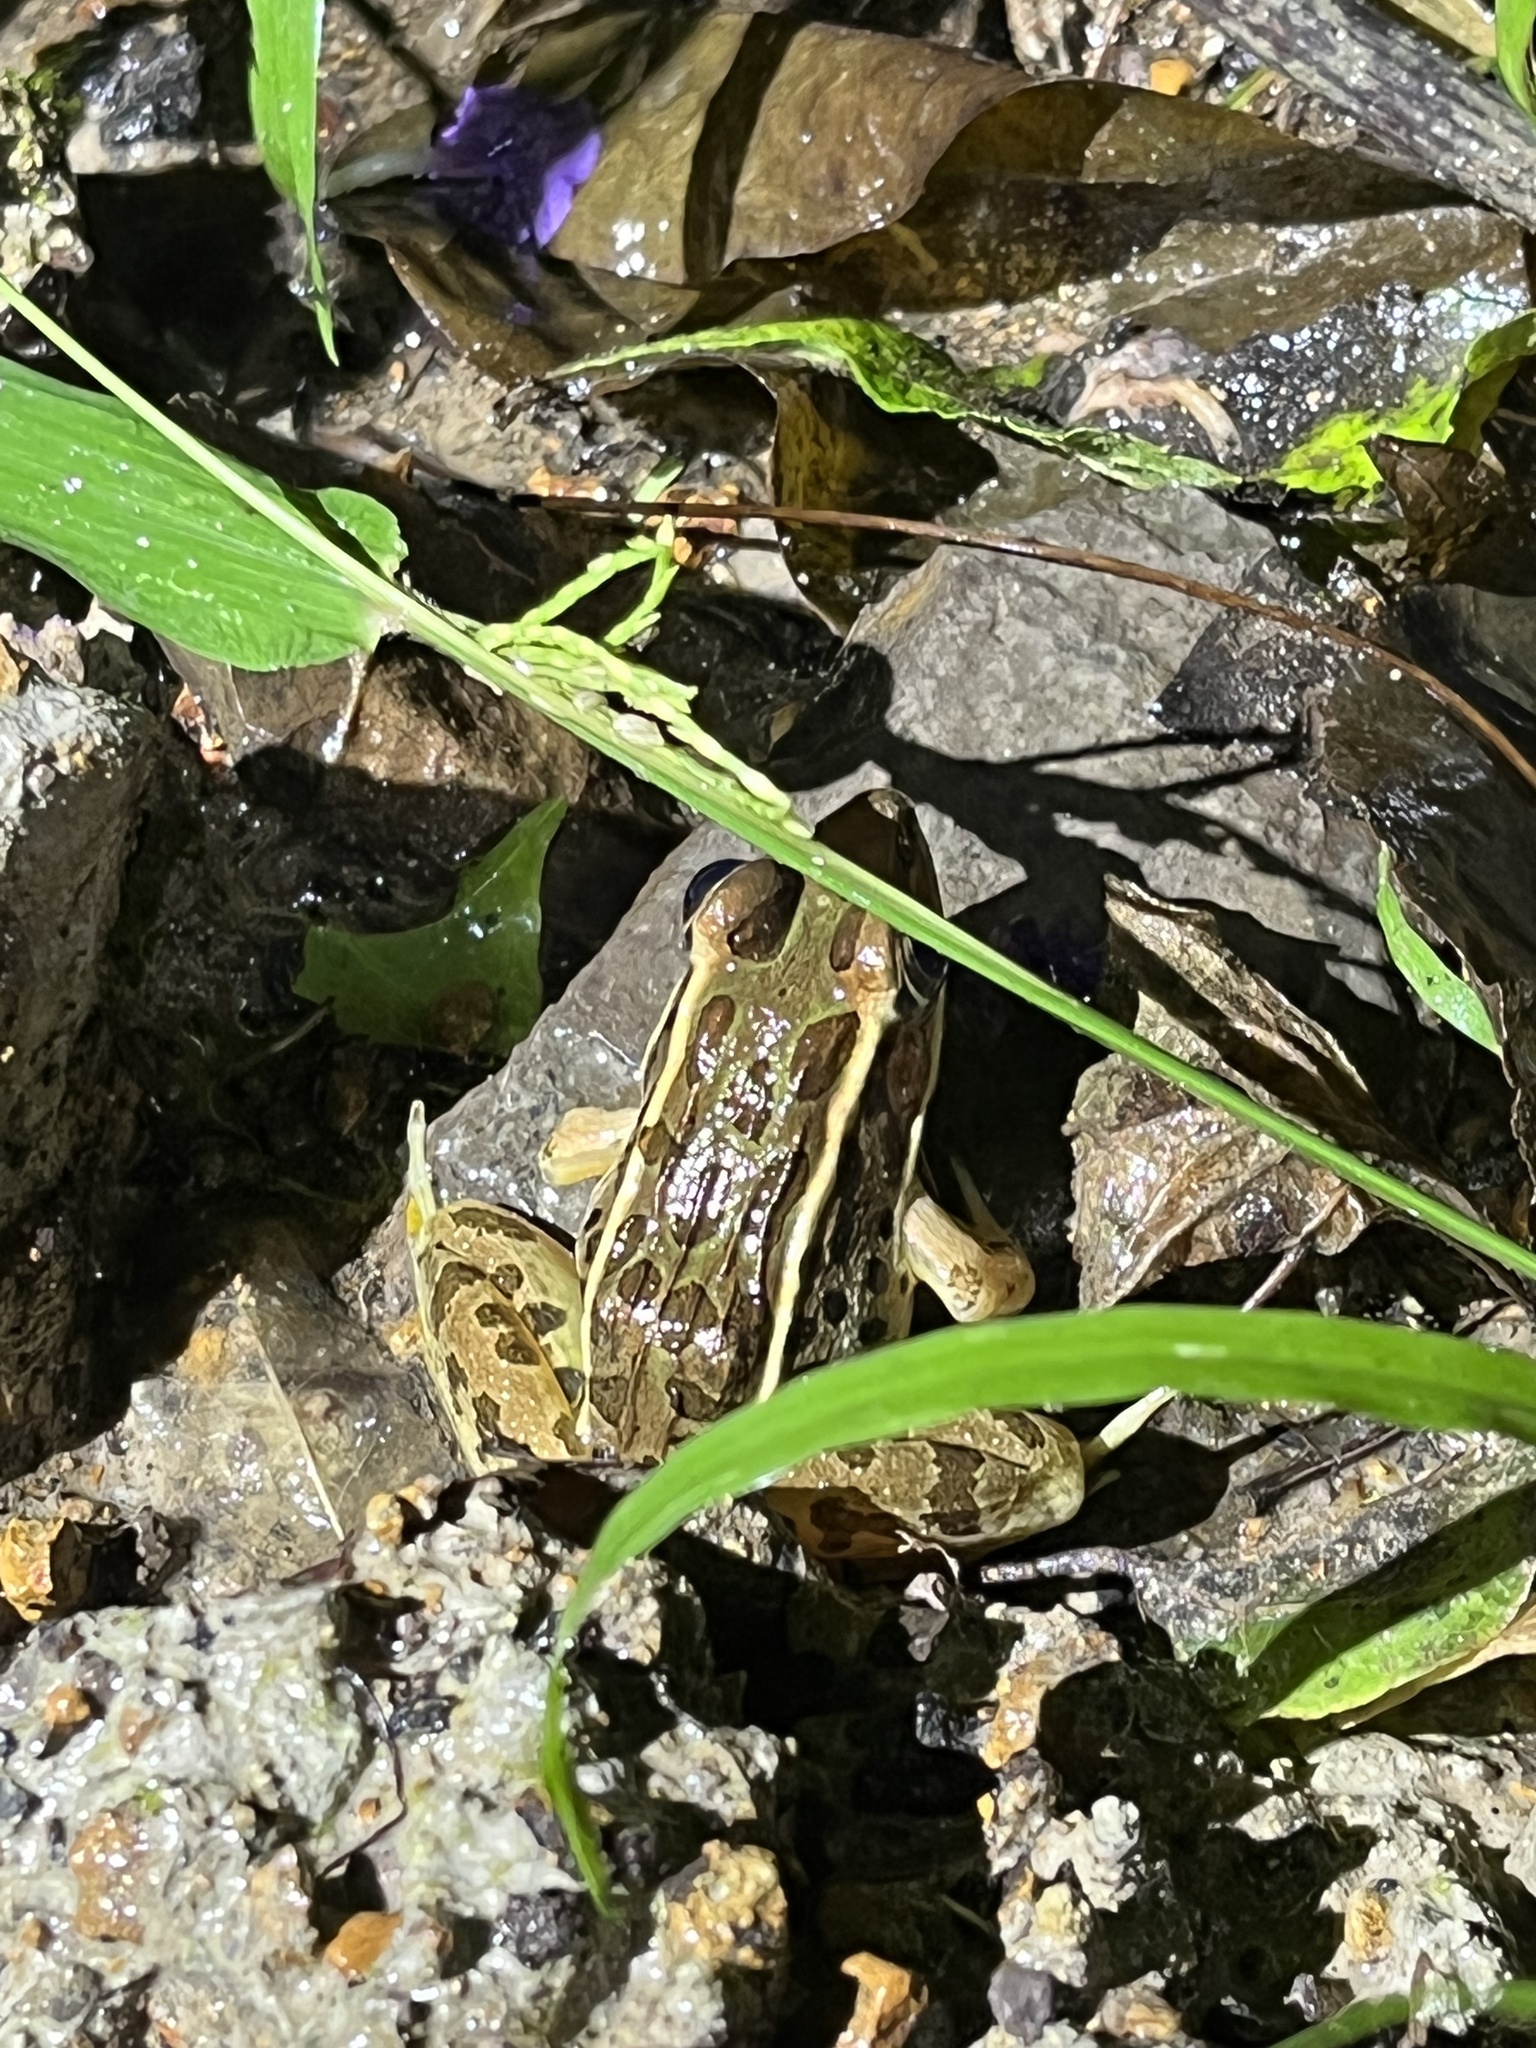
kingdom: Animalia
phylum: Chordata
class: Amphibia
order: Anura
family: Ranidae
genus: Lithobates
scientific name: Lithobates forreri
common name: Forrer's grass frog
